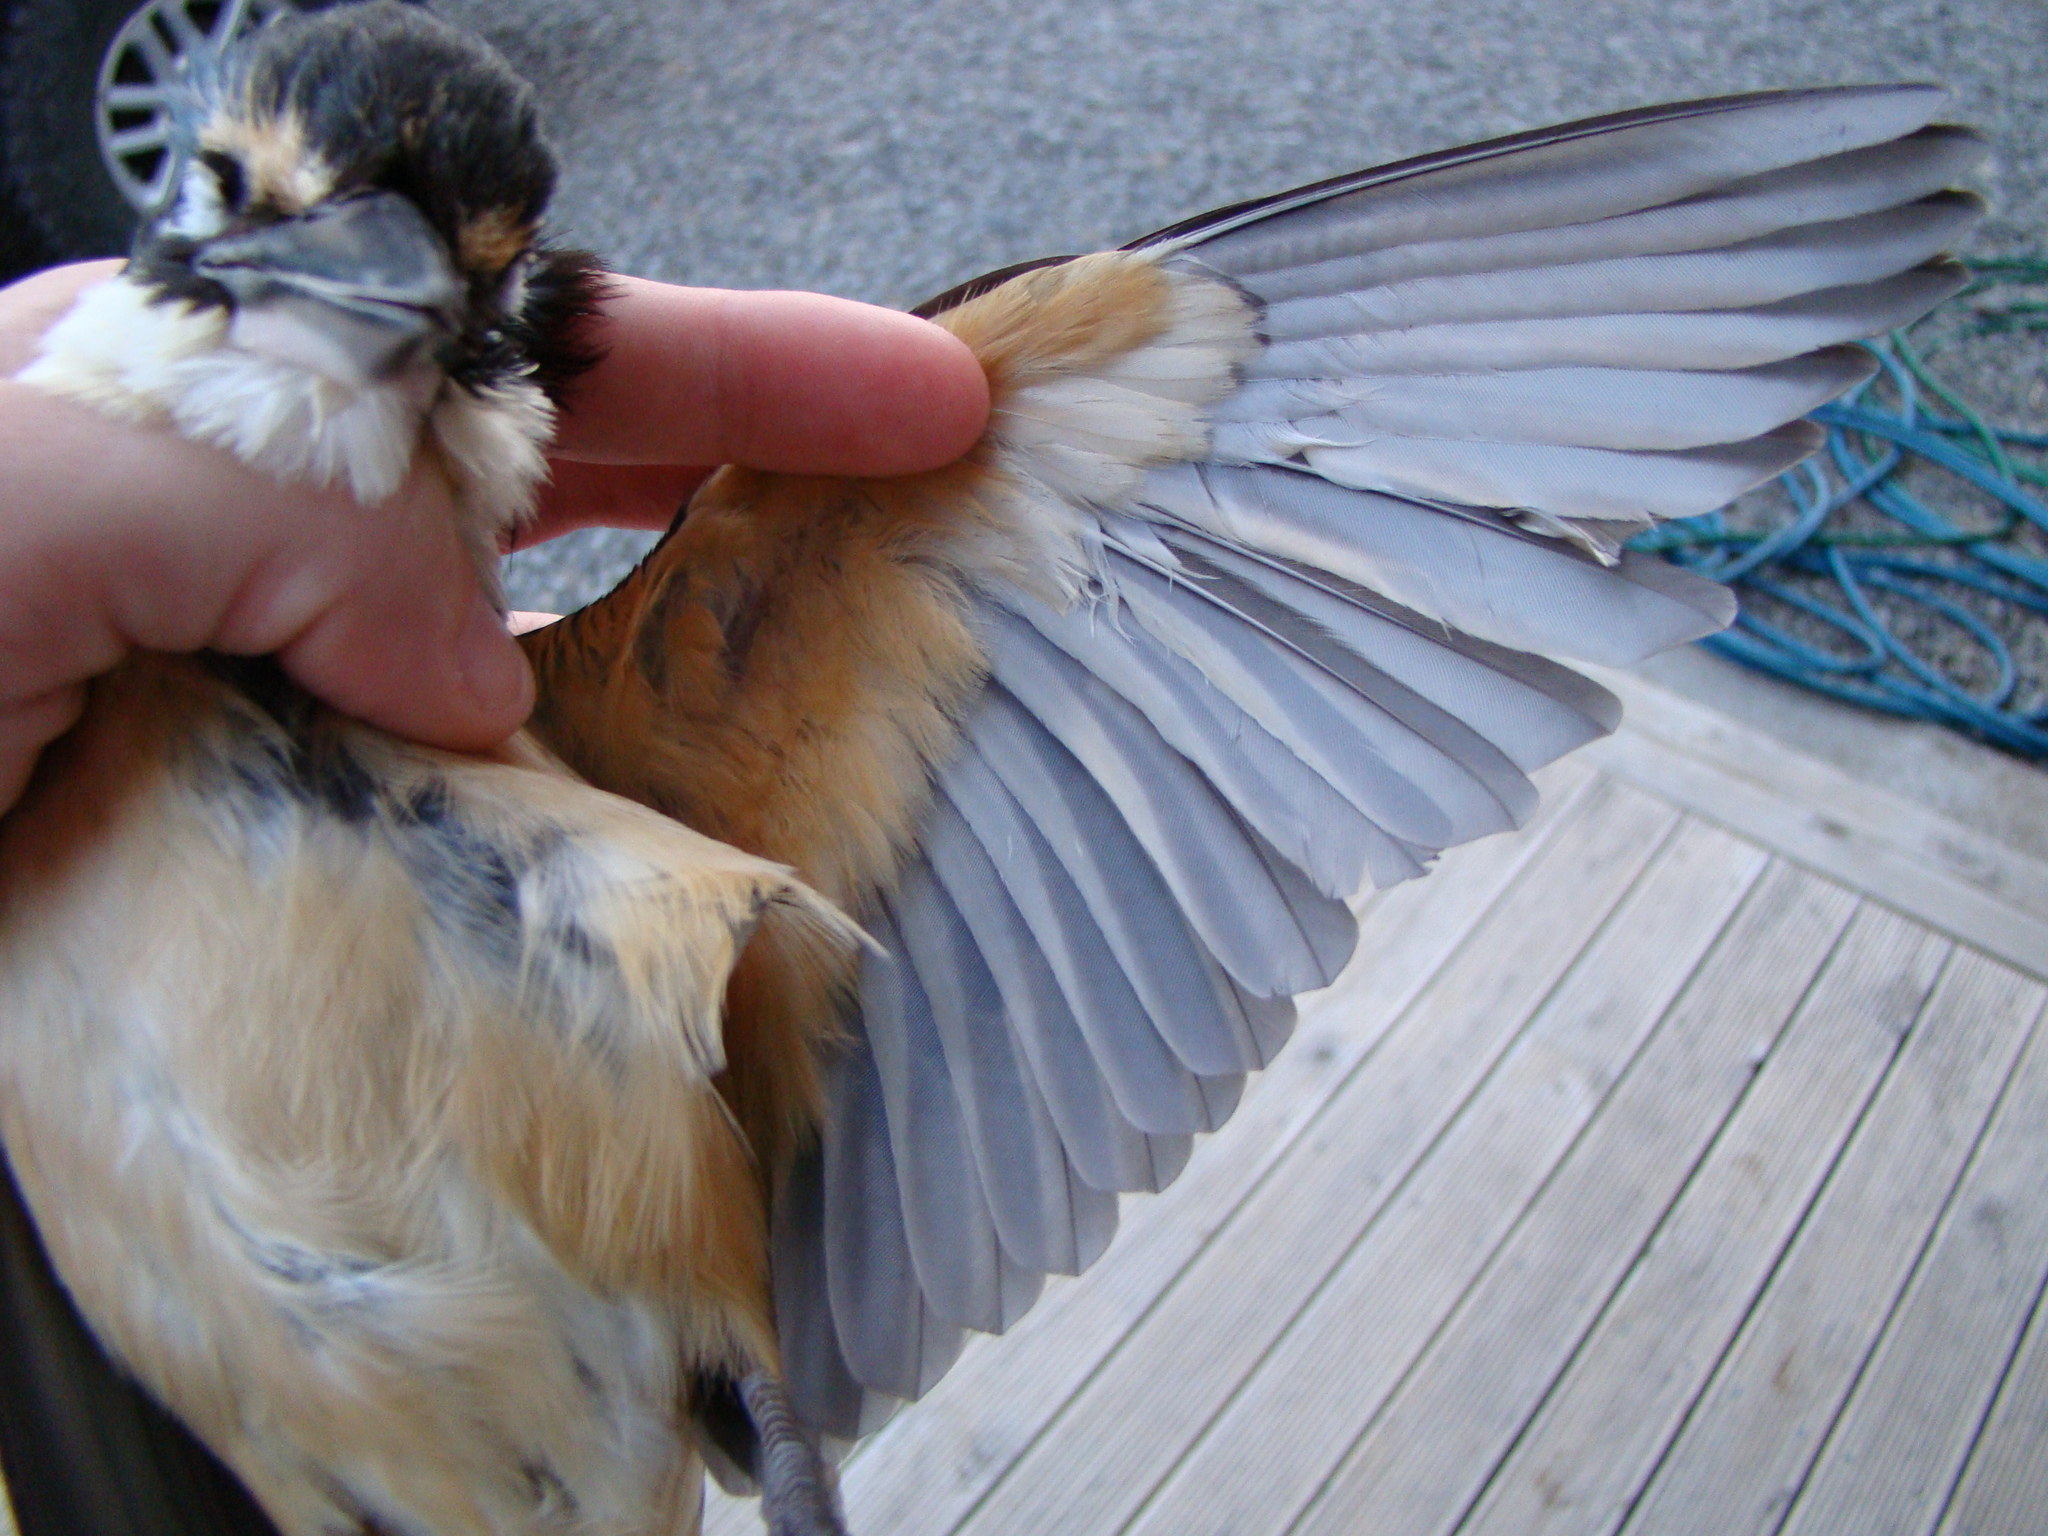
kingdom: Animalia
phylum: Chordata
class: Aves
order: Coraciiformes
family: Alcedinidae
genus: Todiramphus
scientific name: Todiramphus sanctus
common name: Sacred kingfisher
